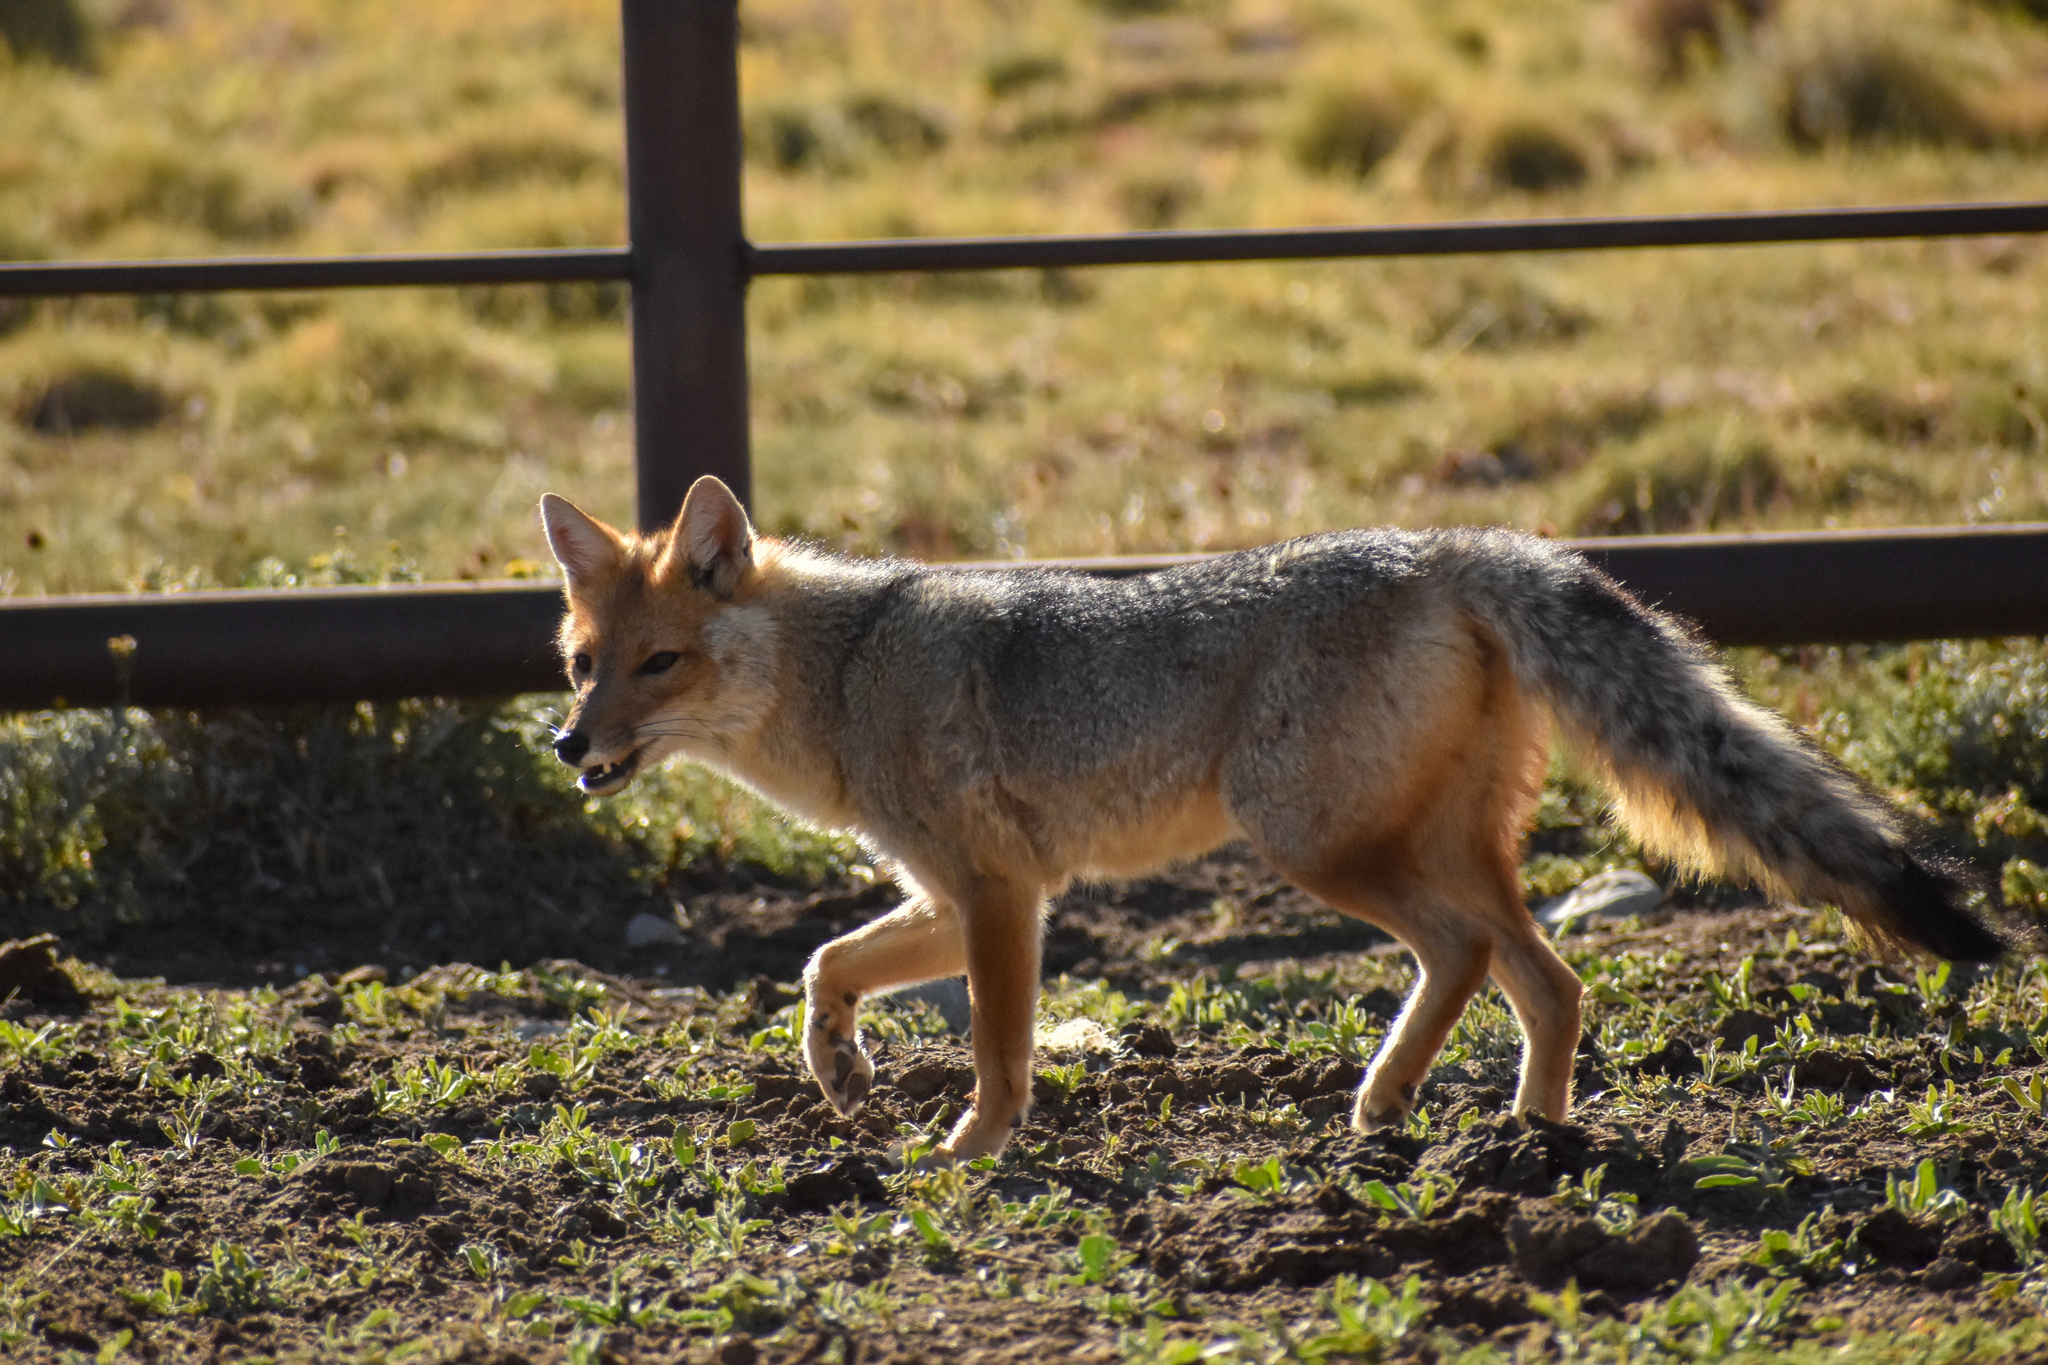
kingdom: Animalia
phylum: Chordata
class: Mammalia
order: Carnivora
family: Canidae
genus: Lycalopex
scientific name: Lycalopex culpaeus
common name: Culpeo
